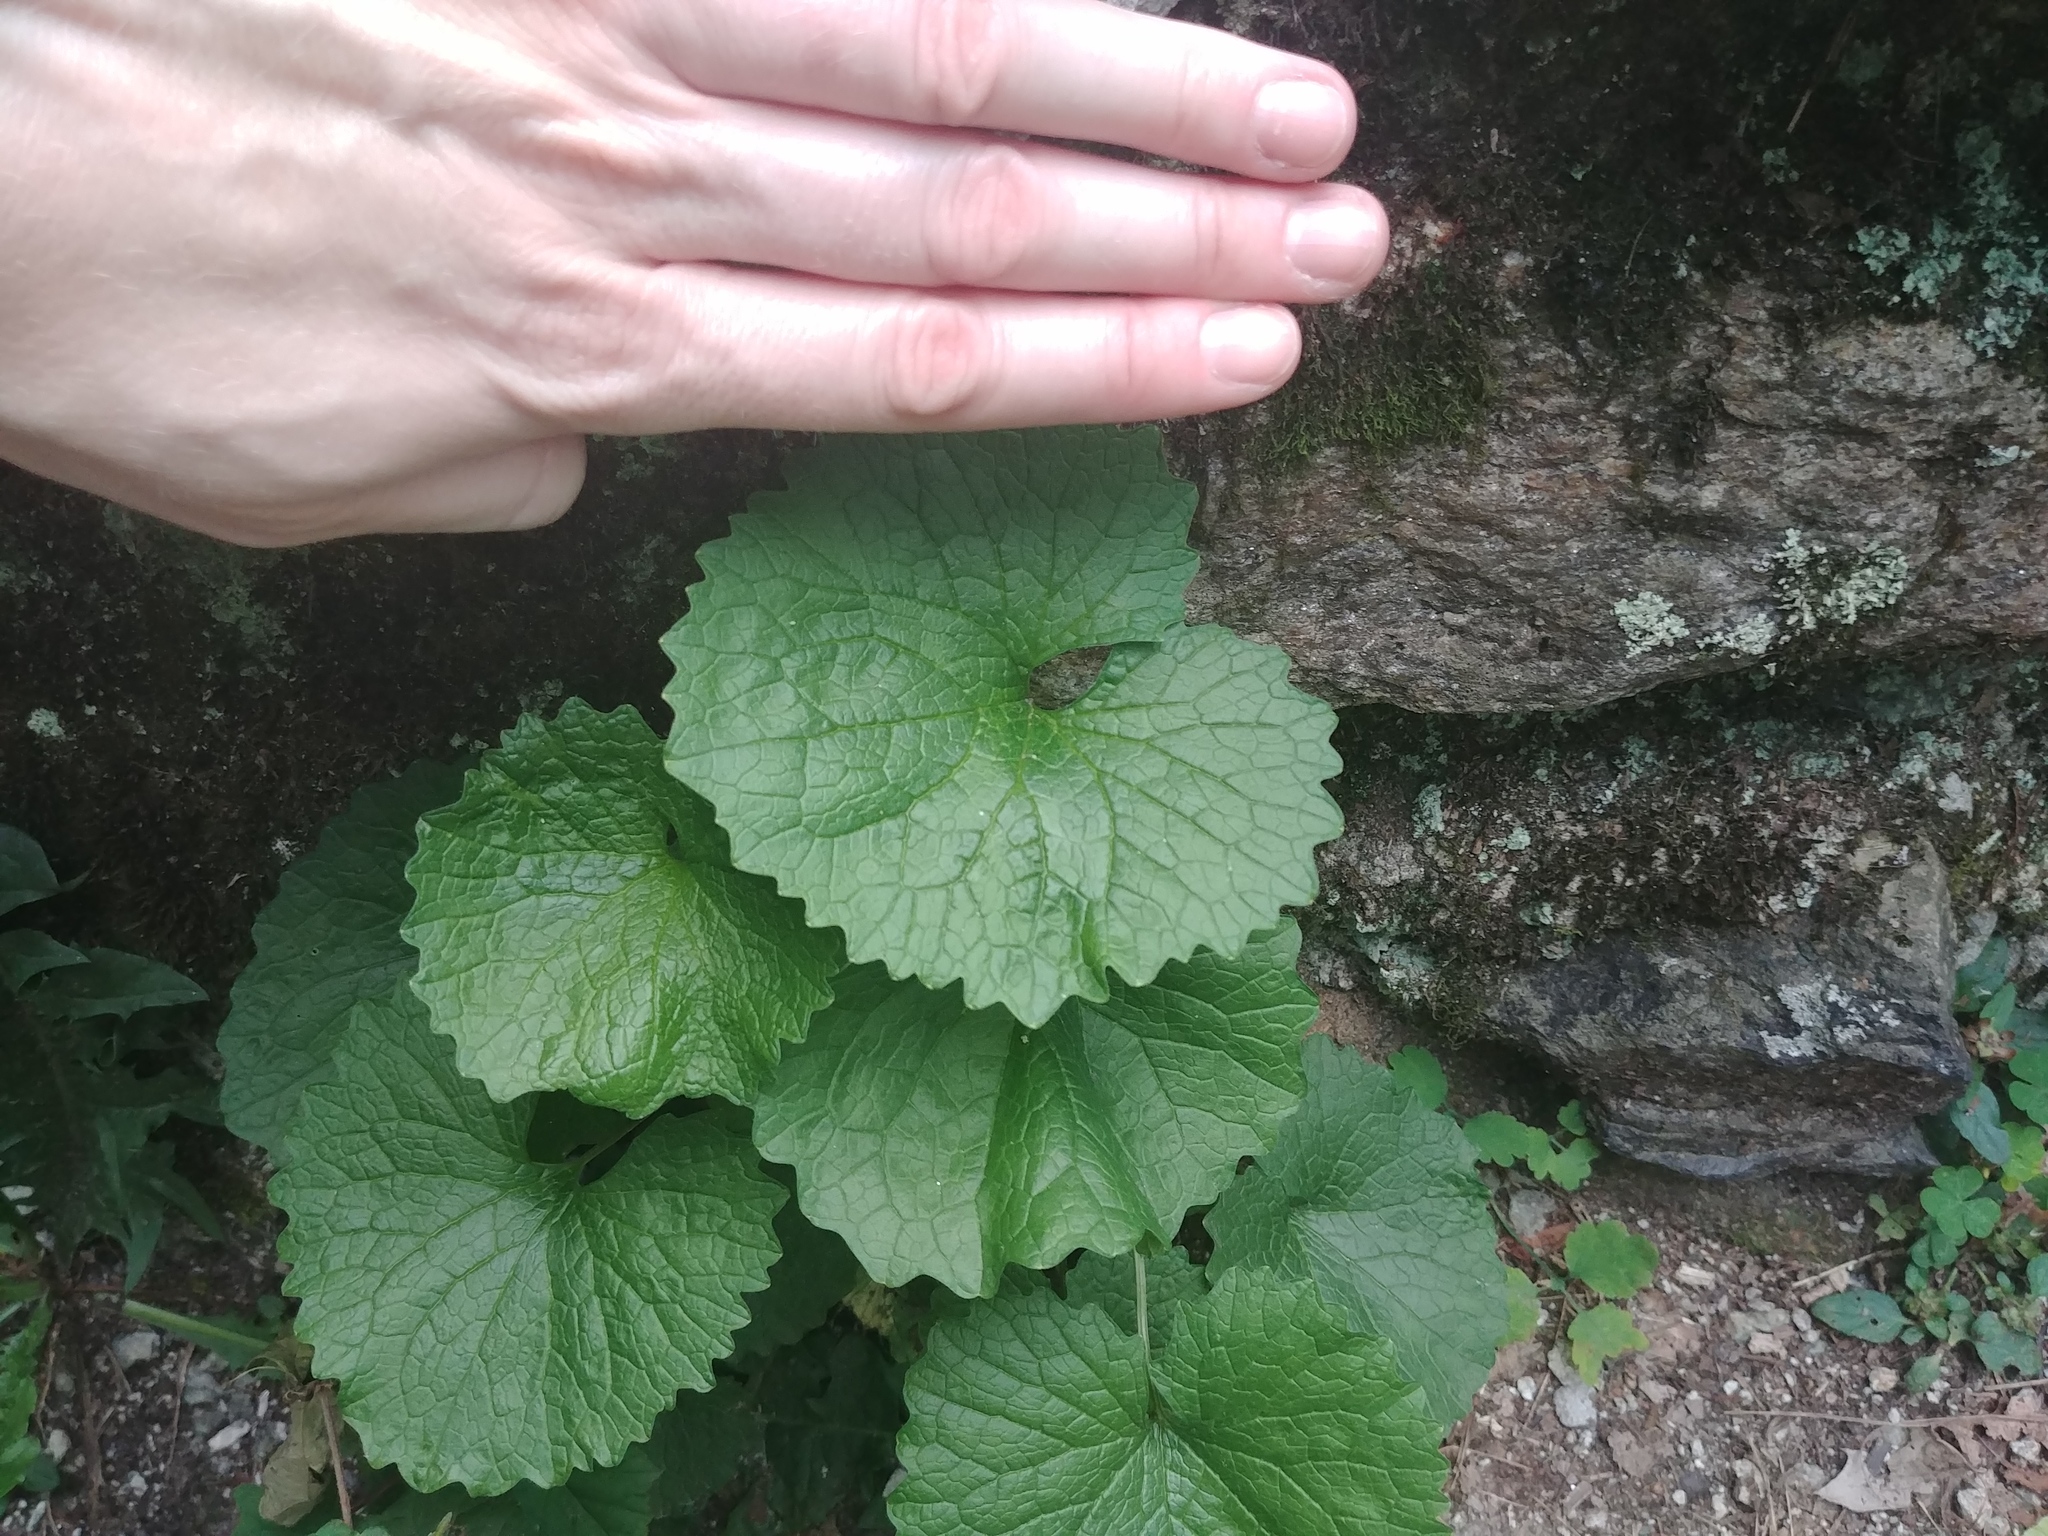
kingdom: Plantae
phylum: Tracheophyta
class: Magnoliopsida
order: Brassicales
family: Brassicaceae
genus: Alliaria
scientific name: Alliaria petiolata
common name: Garlic mustard
